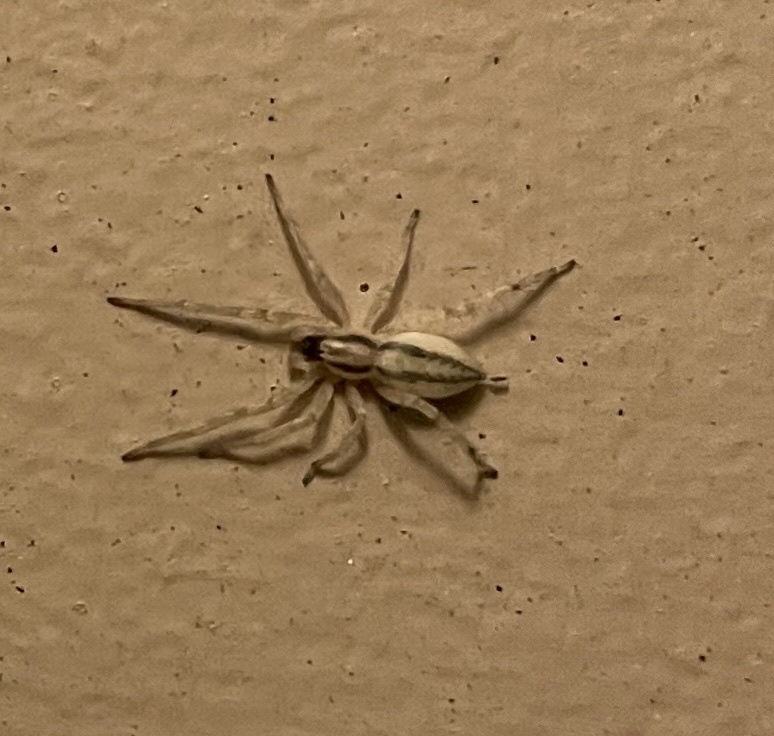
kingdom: Animalia
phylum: Arthropoda
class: Arachnida
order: Araneae
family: Anyphaenidae
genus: Hibana
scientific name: Hibana incursa
